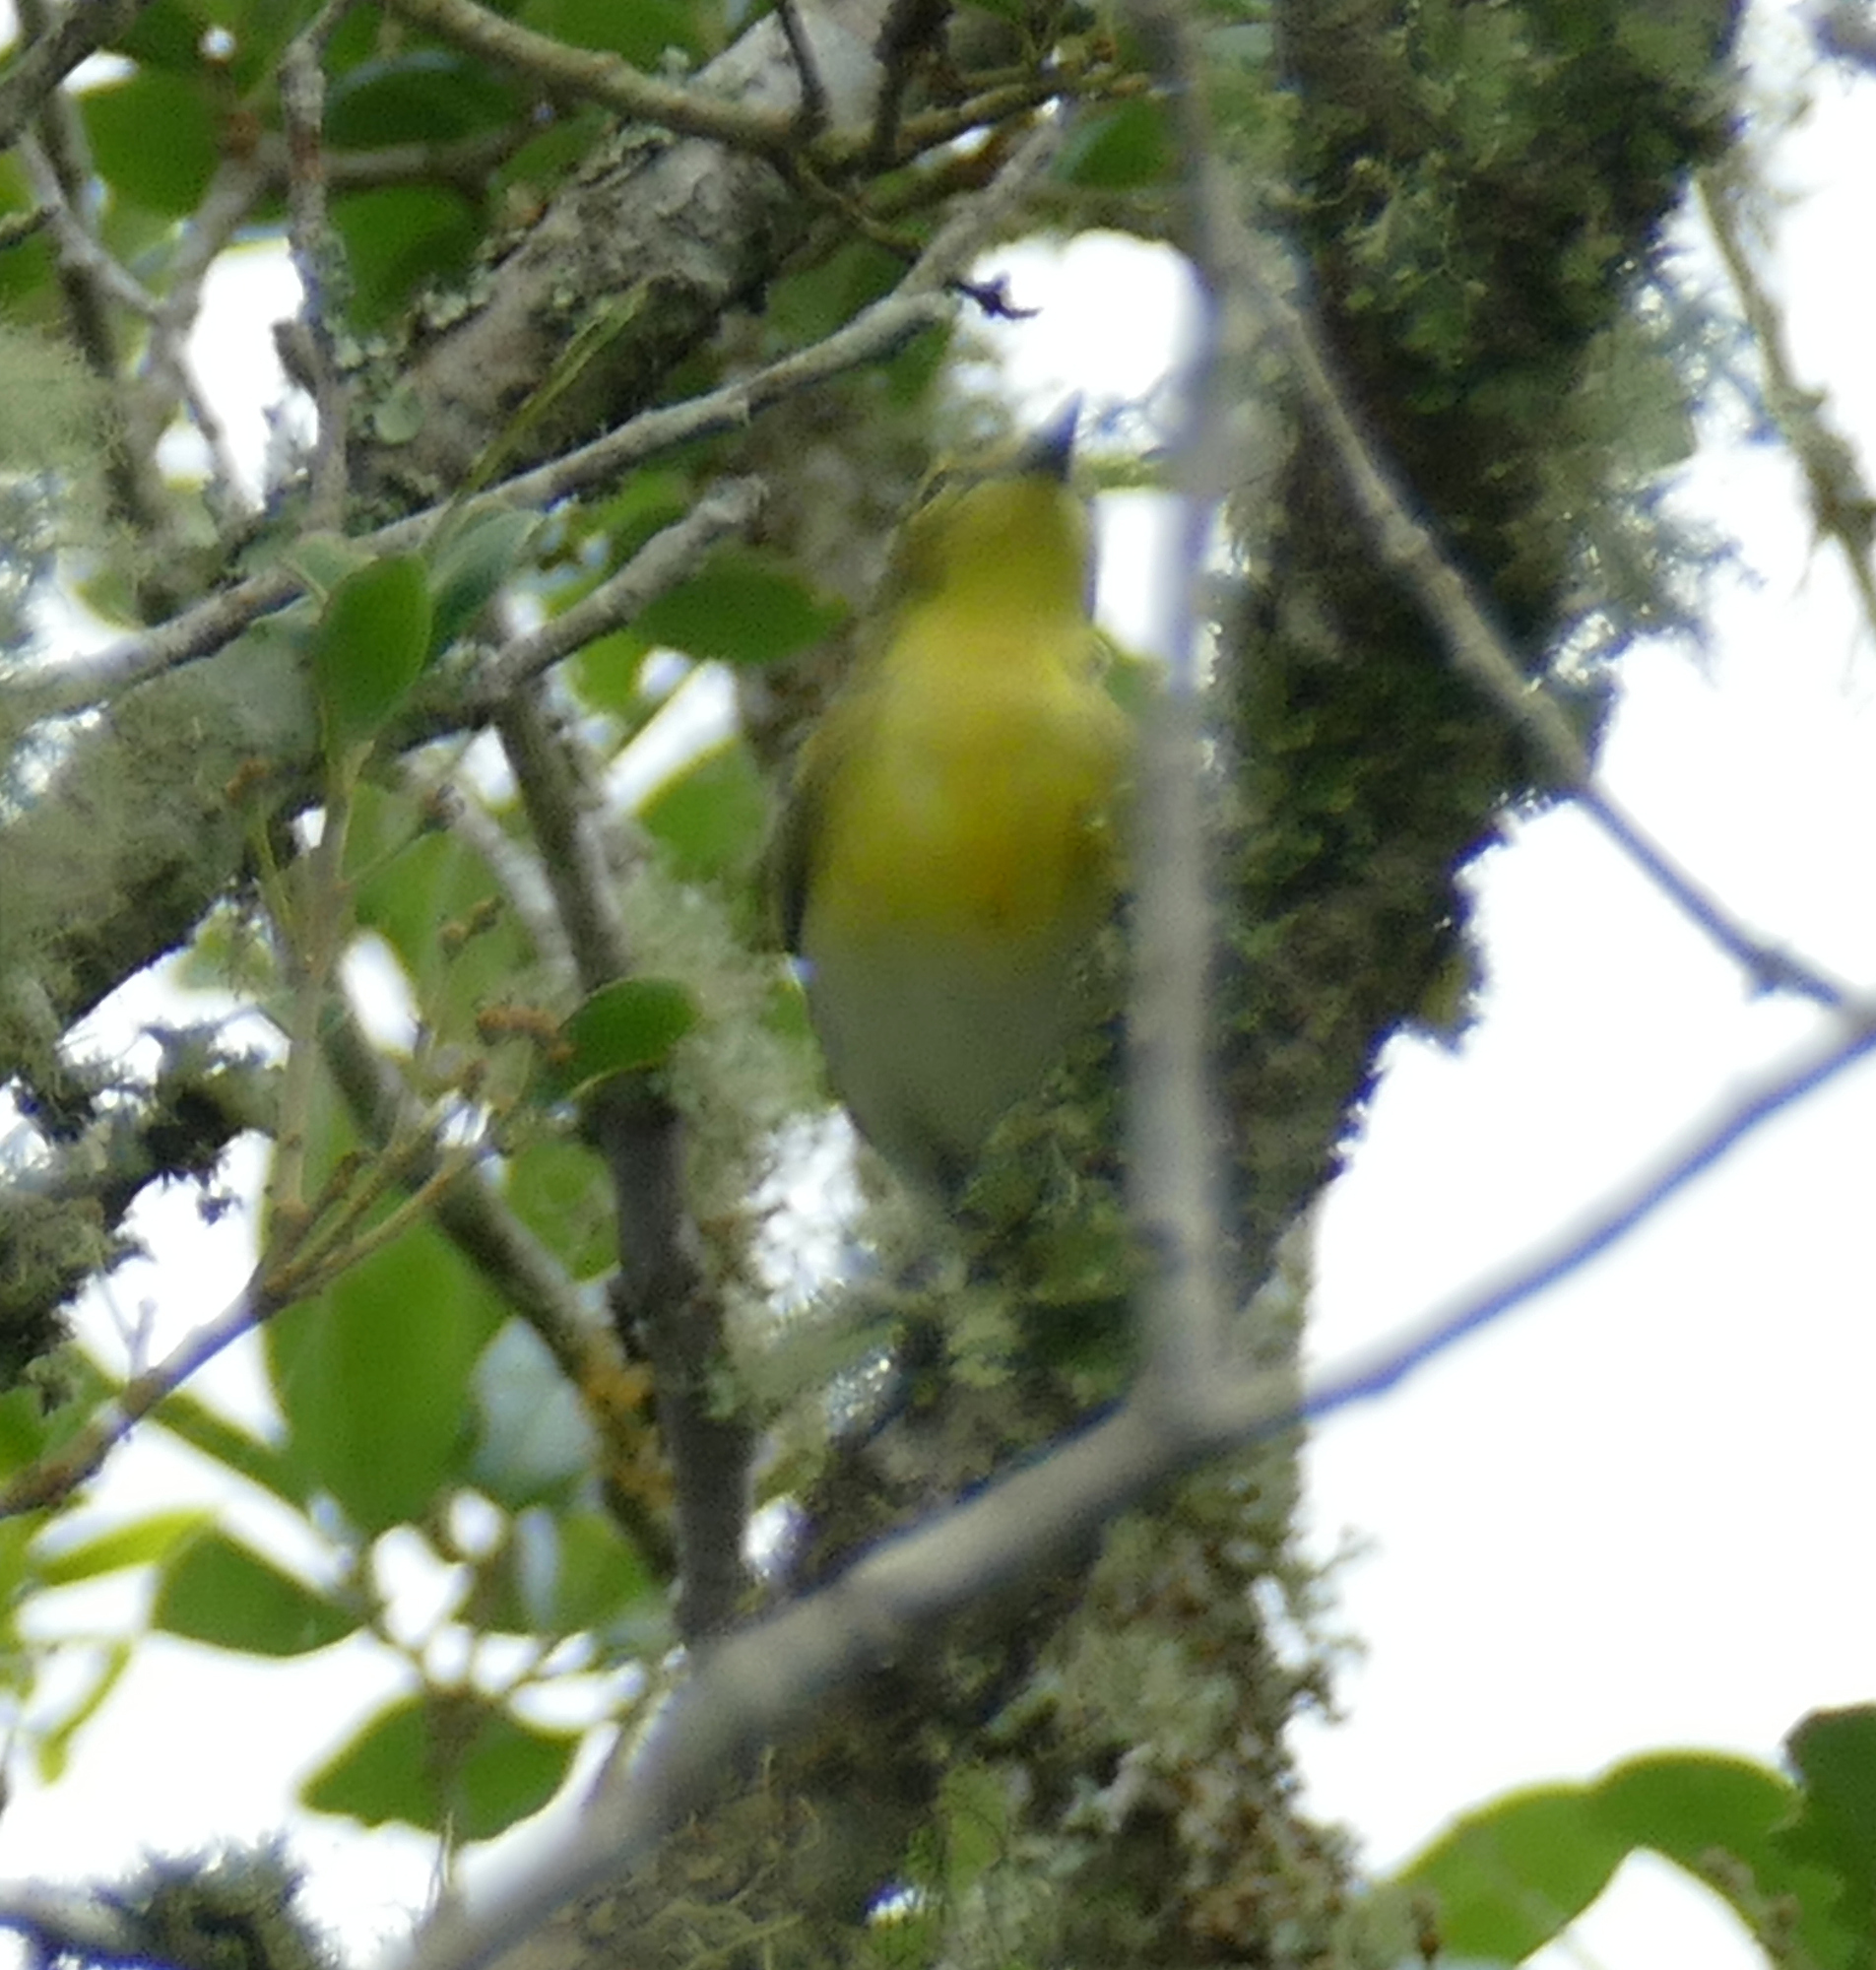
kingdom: Animalia
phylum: Chordata
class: Aves
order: Passeriformes
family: Vireonidae
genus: Vireo
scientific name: Vireo flavifrons
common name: Yellow-throated vireo
